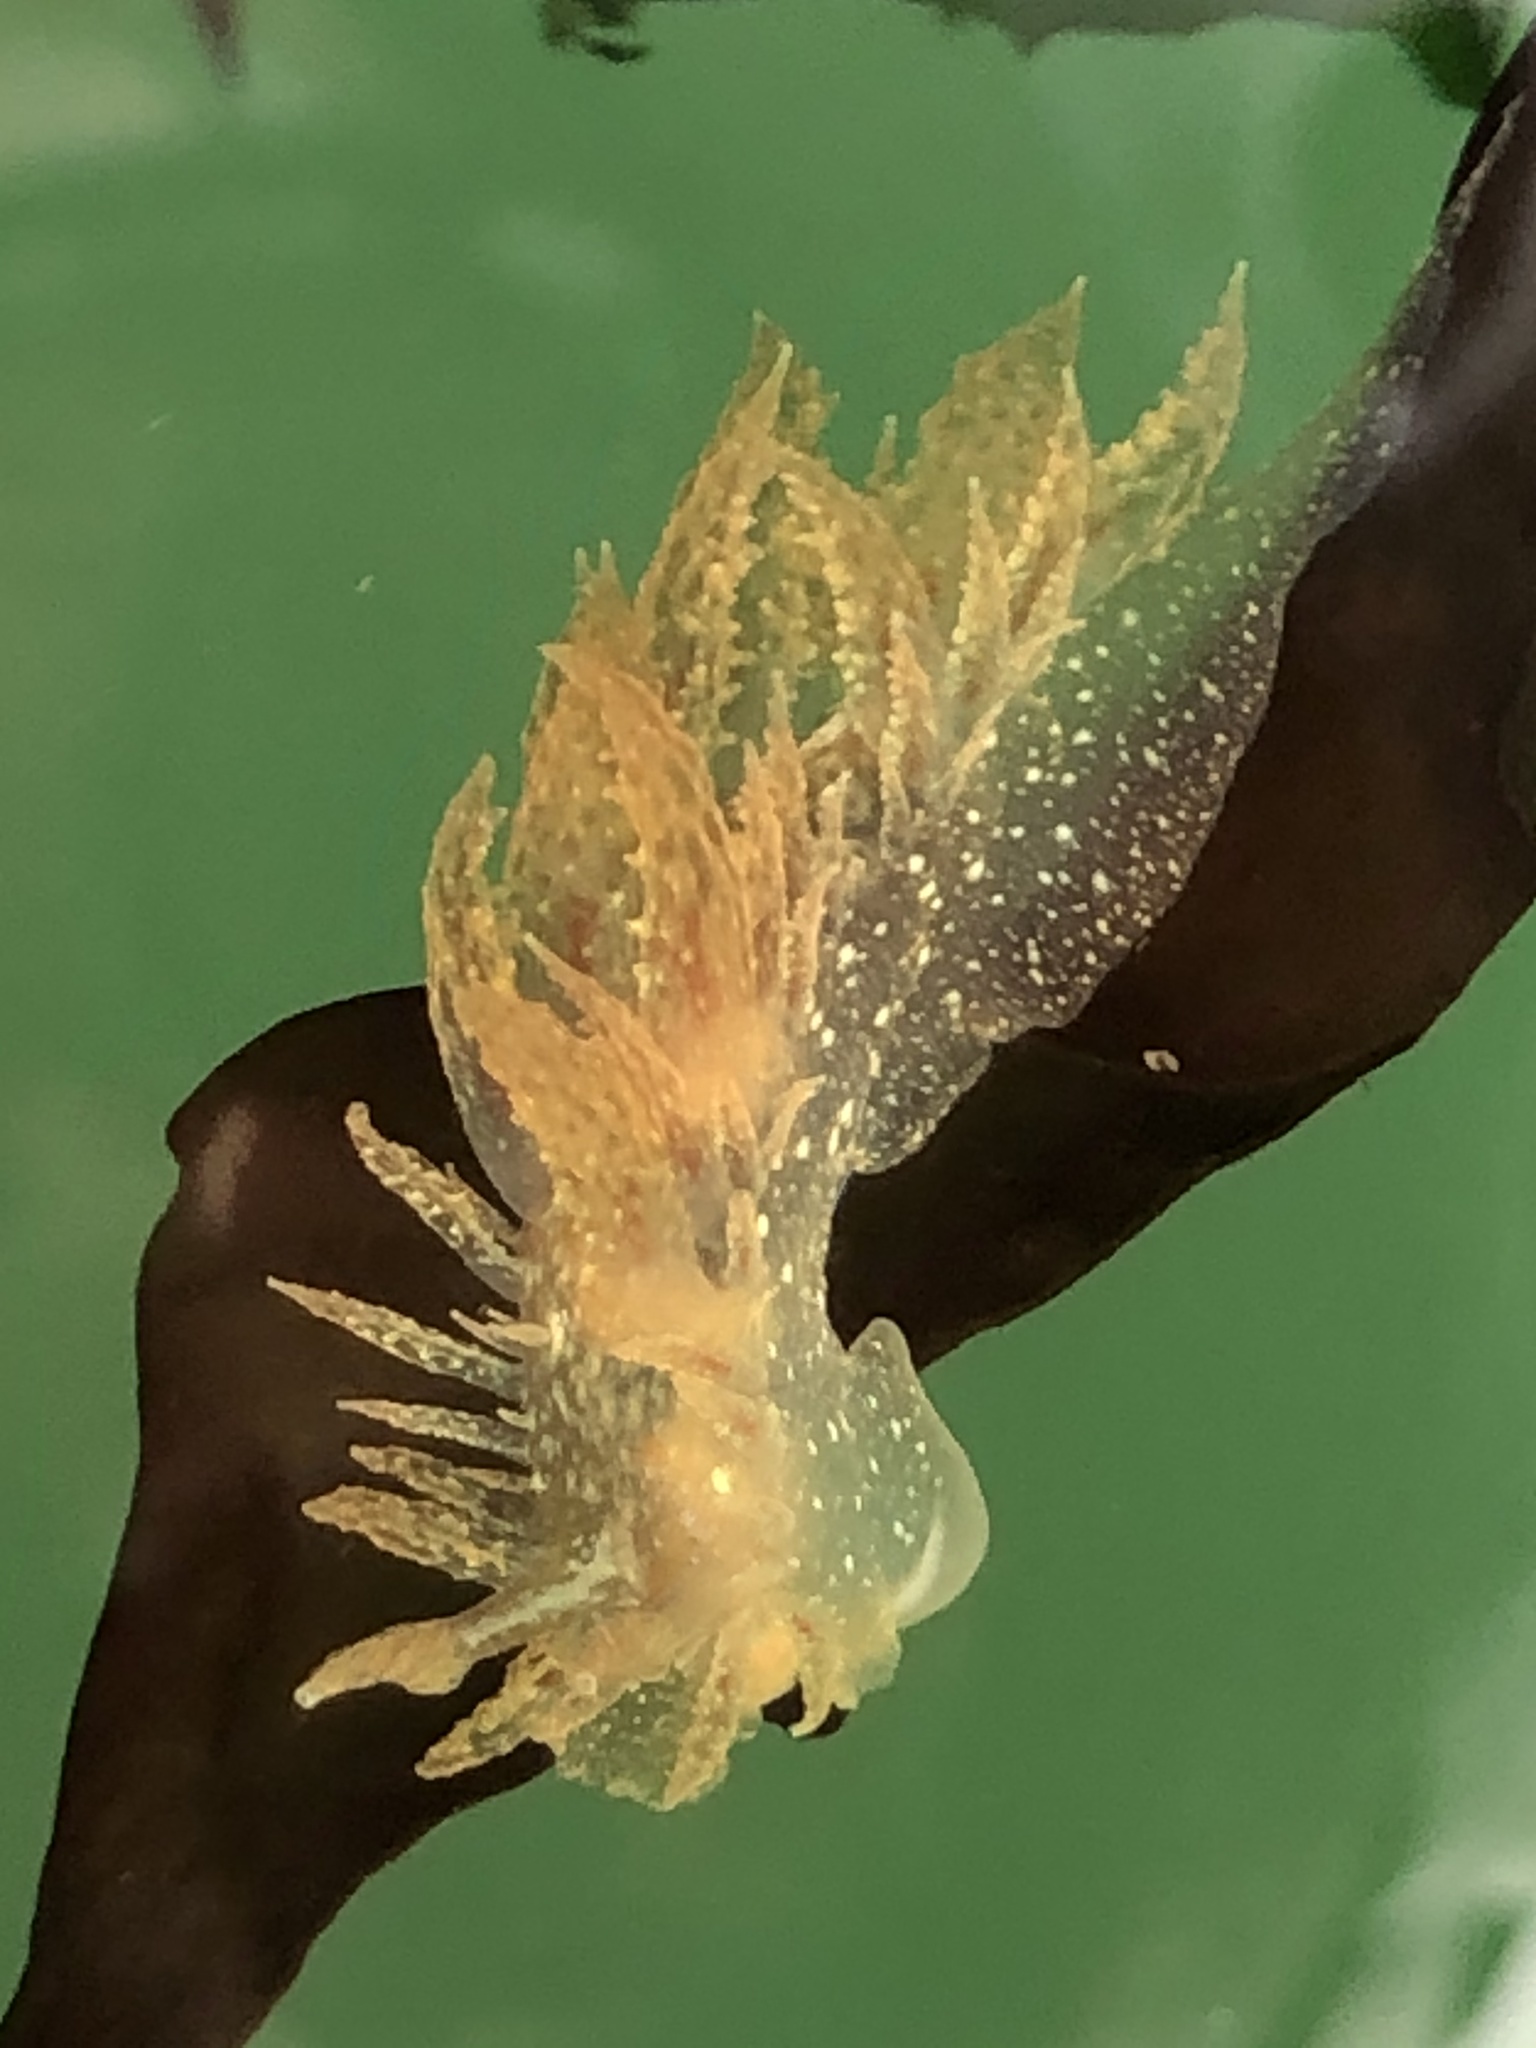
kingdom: Animalia
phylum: Mollusca
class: Gastropoda
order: Nudibranchia
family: Dironidae
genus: Dirona
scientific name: Dirona picta
